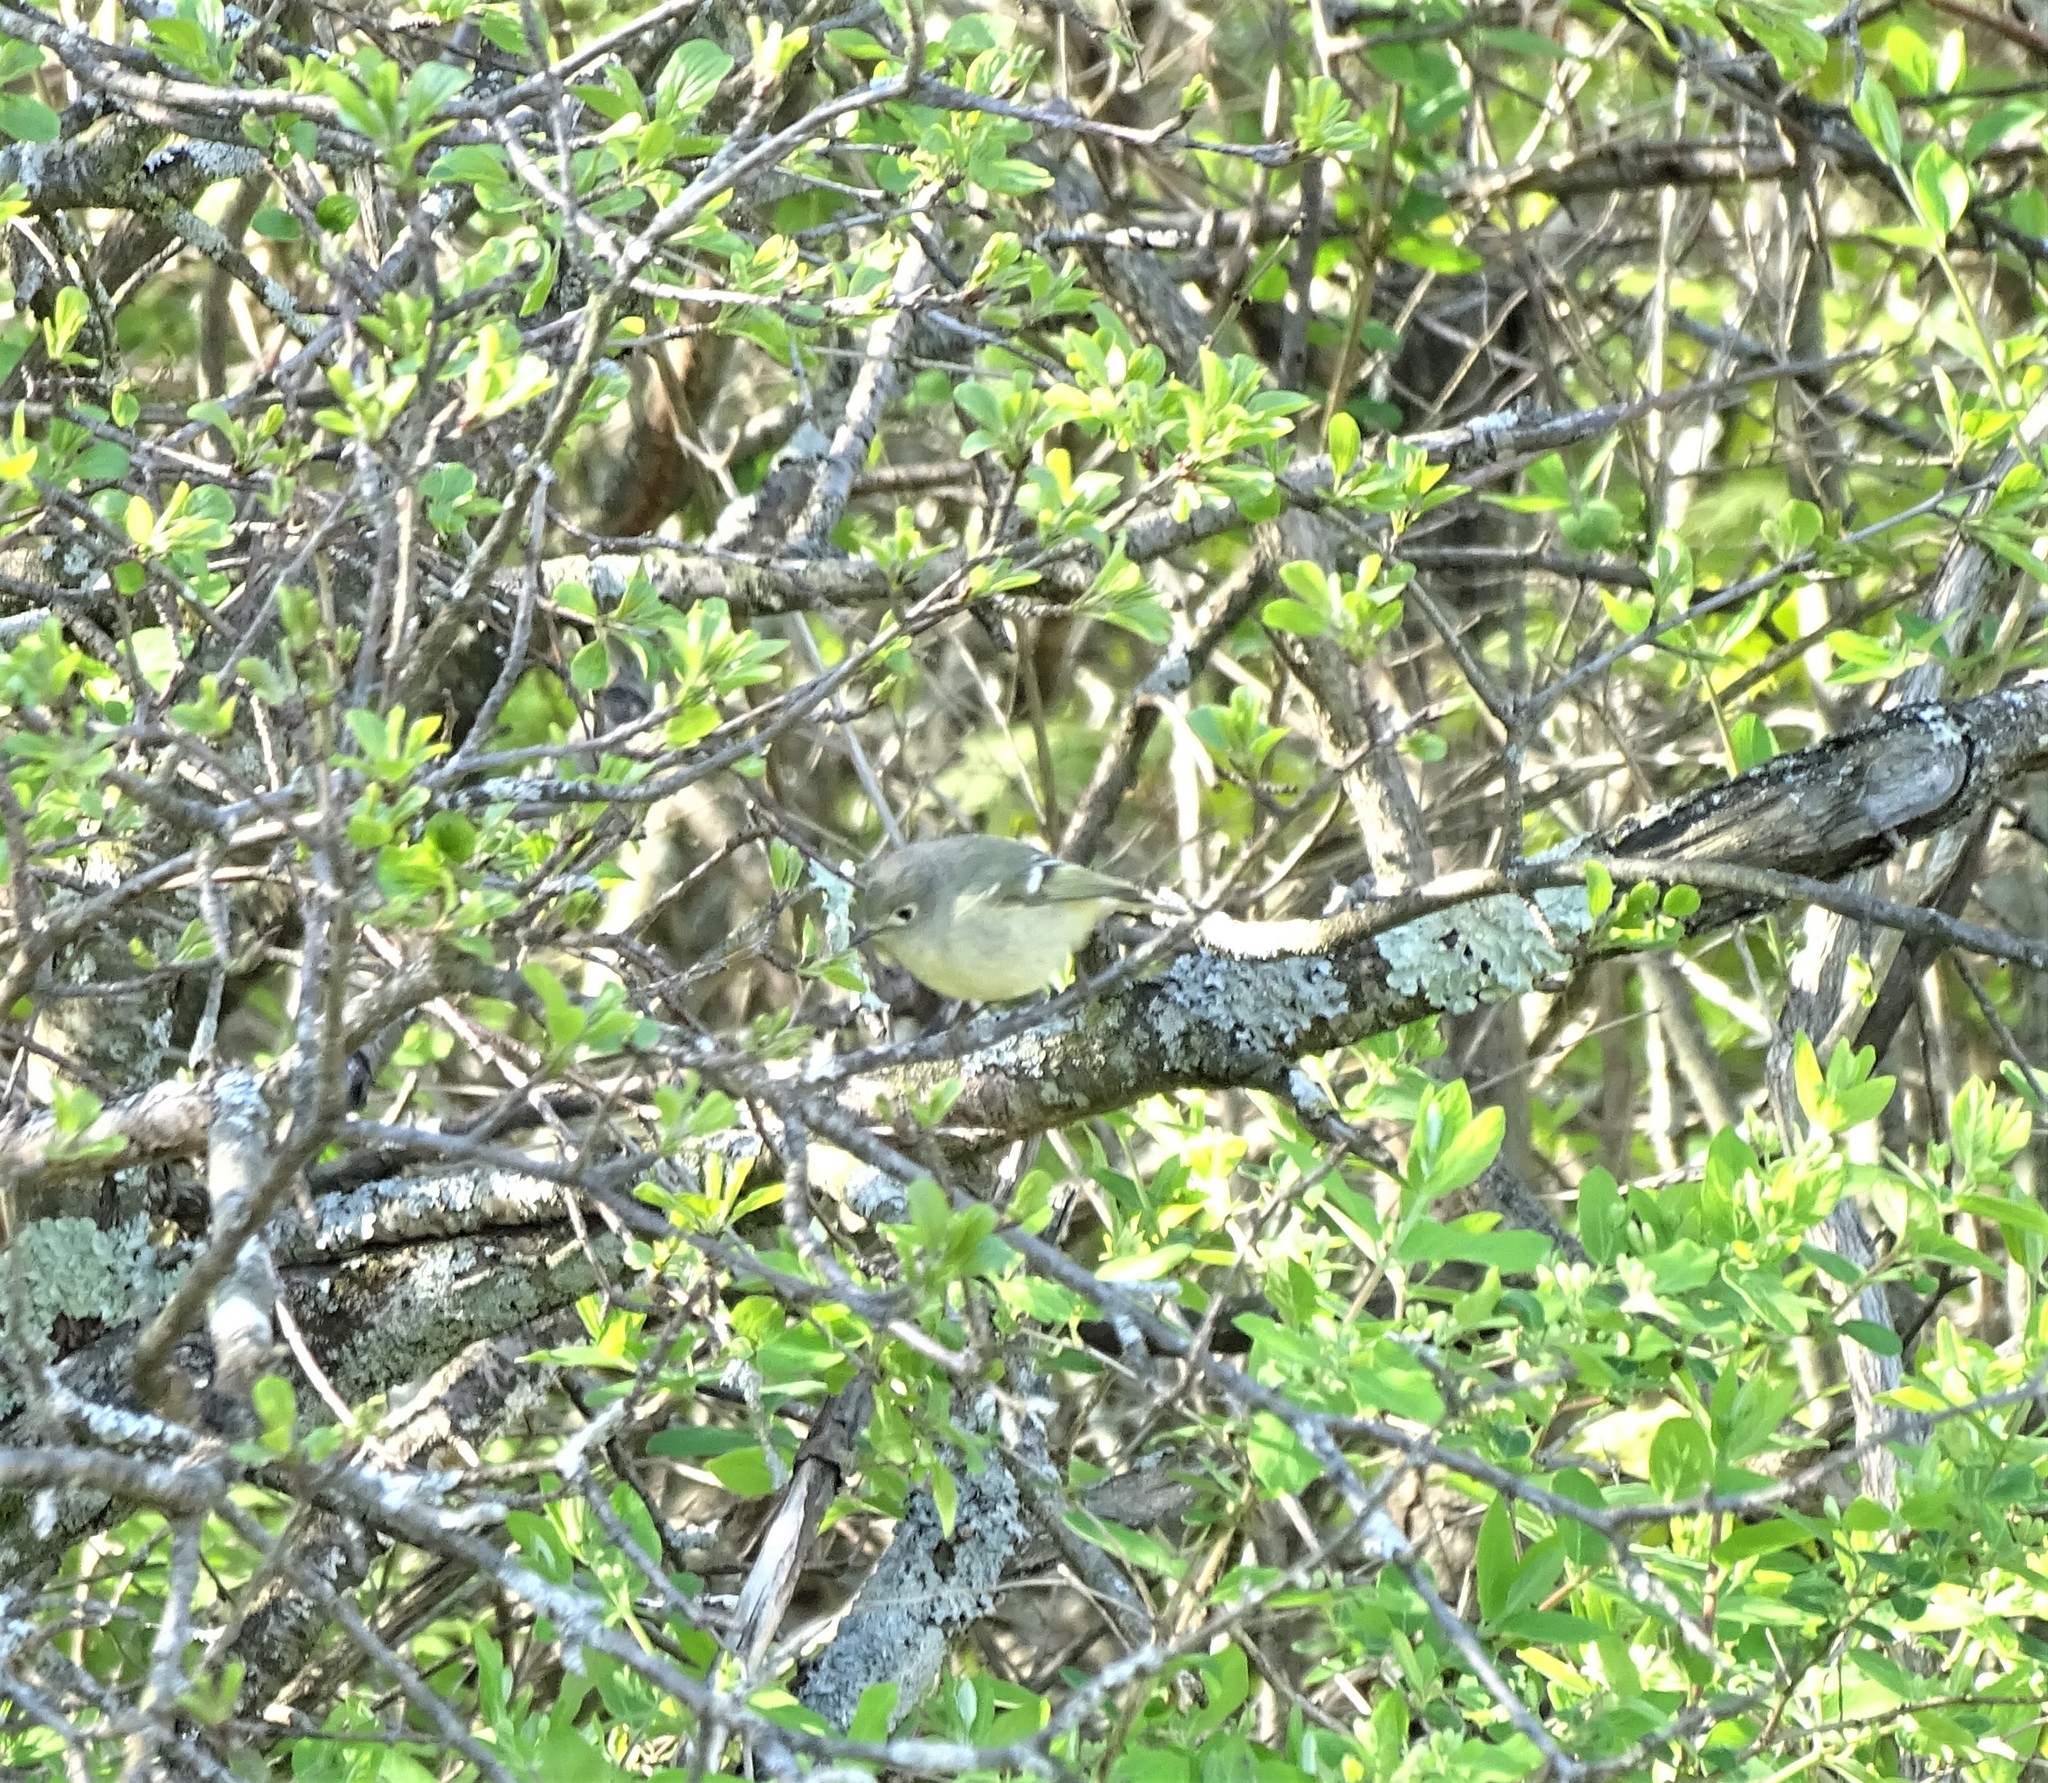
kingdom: Animalia
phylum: Chordata
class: Aves
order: Passeriformes
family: Regulidae
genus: Regulus
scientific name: Regulus calendula
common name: Ruby-crowned kinglet
